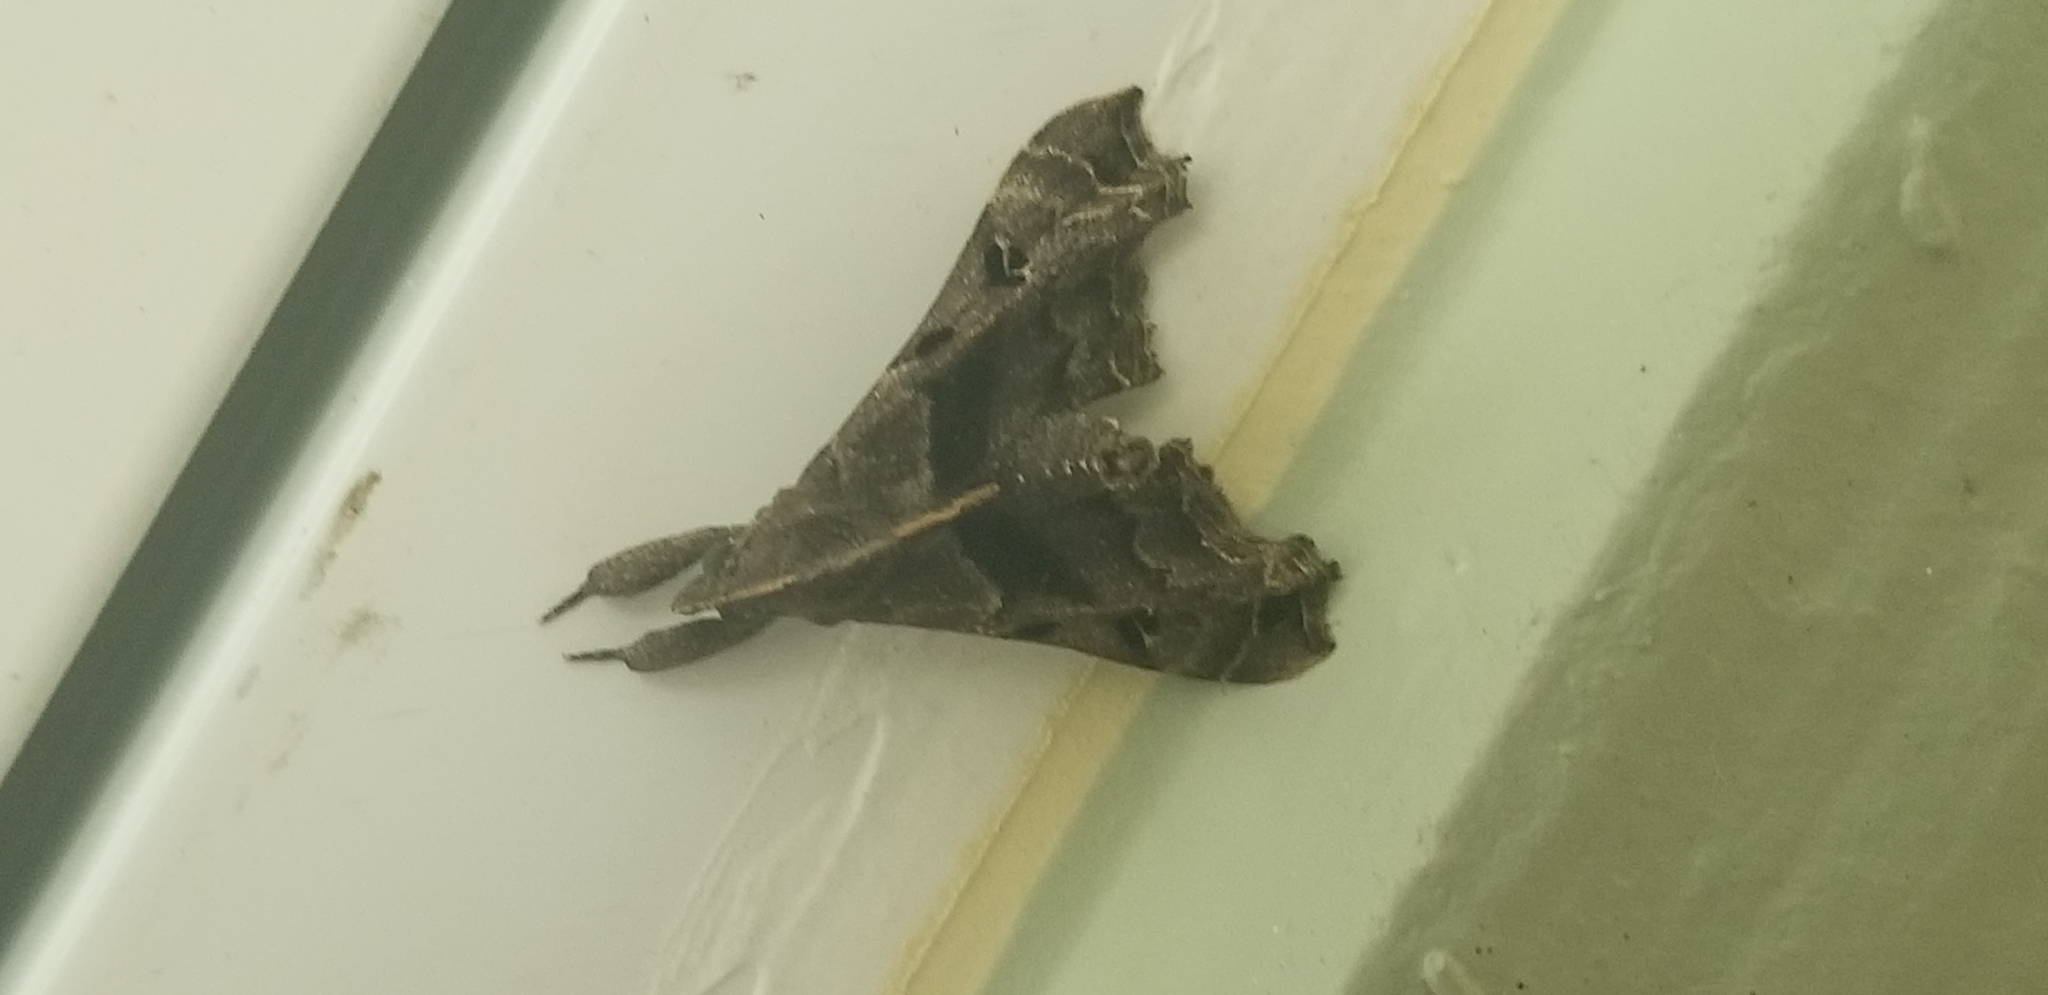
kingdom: Animalia
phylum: Arthropoda
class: Insecta
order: Lepidoptera
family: Erebidae
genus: Palthis
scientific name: Palthis asopialis
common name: Faint-spotted palthis moth
